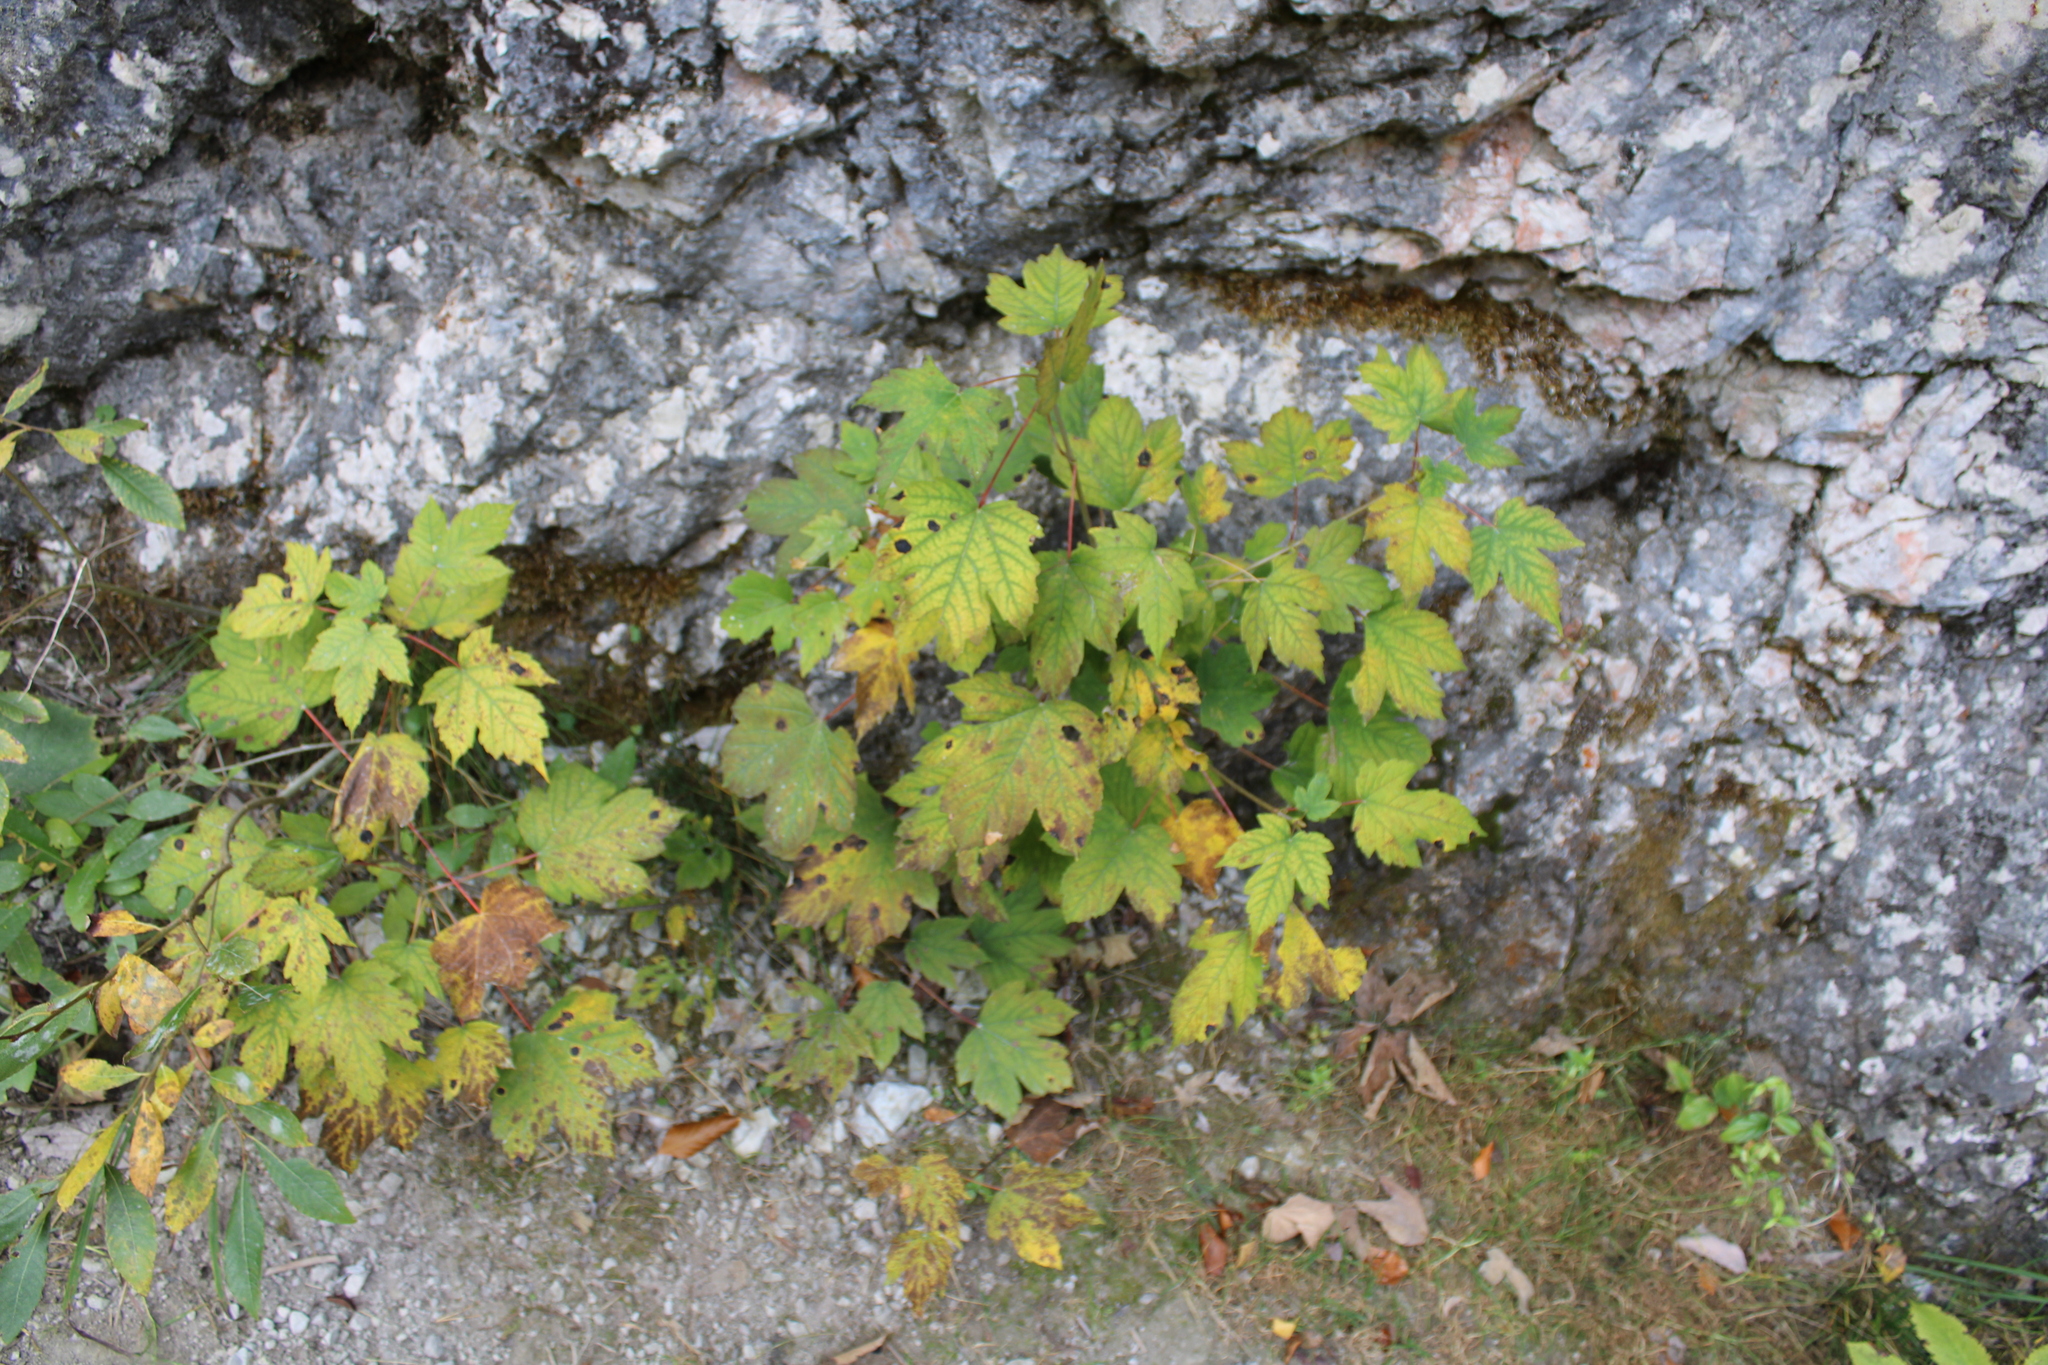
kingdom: Plantae
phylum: Tracheophyta
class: Magnoliopsida
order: Sapindales
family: Sapindaceae
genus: Acer
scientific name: Acer pseudoplatanus
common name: Sycamore
